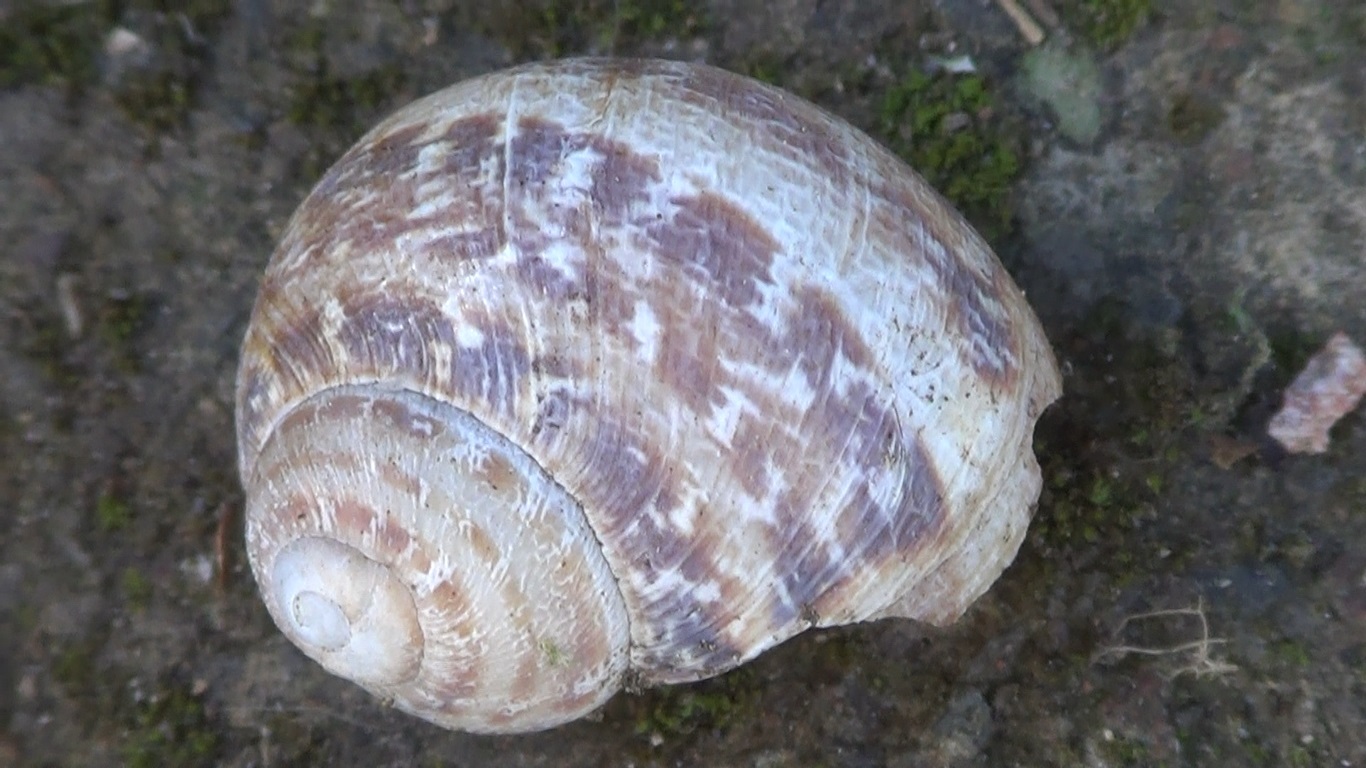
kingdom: Animalia
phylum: Mollusca
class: Gastropoda
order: Stylommatophora
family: Helicidae
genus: Cornu
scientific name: Cornu aspersum
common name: Brown garden snail
